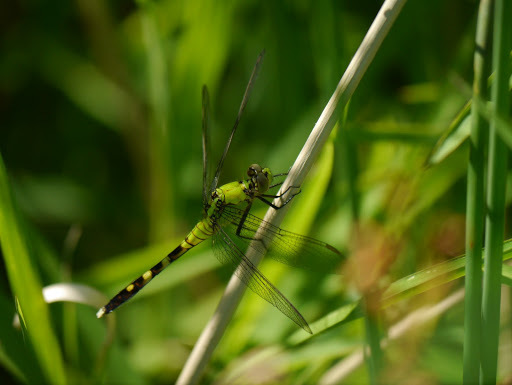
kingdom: Animalia
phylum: Arthropoda
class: Insecta
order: Odonata
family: Libellulidae
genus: Erythemis
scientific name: Erythemis simplicicollis
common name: Eastern pondhawk
